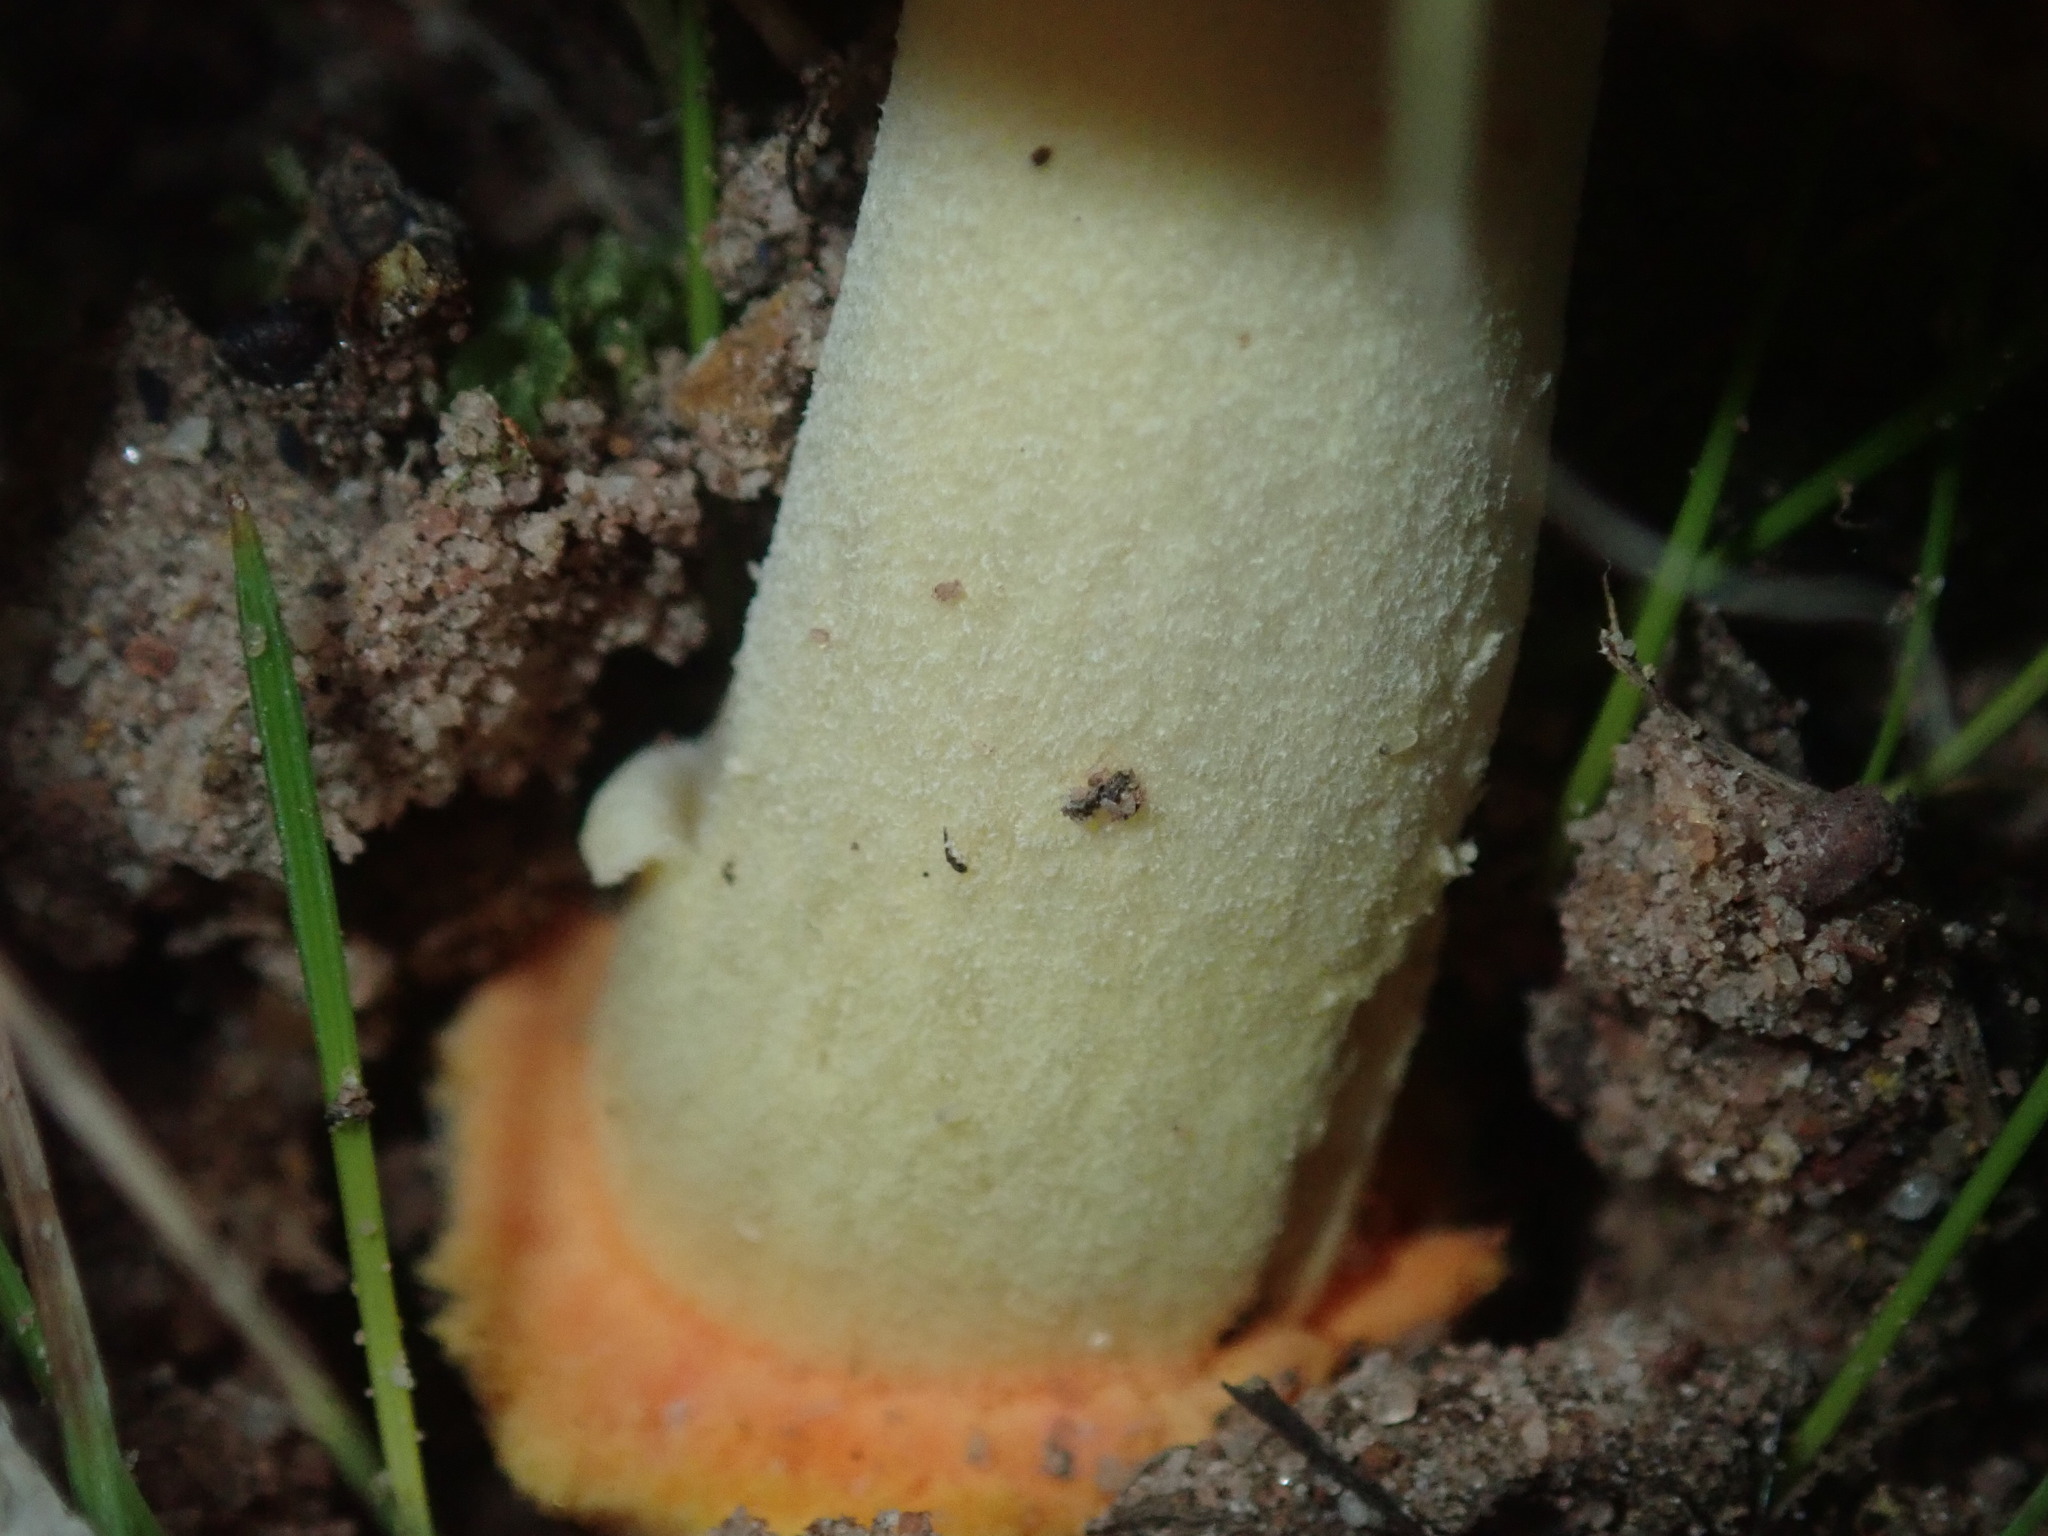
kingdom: Fungi
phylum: Basidiomycota
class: Agaricomycetes
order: Agaricales
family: Amanitaceae
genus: Amanita
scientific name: Amanita xanthocephala
